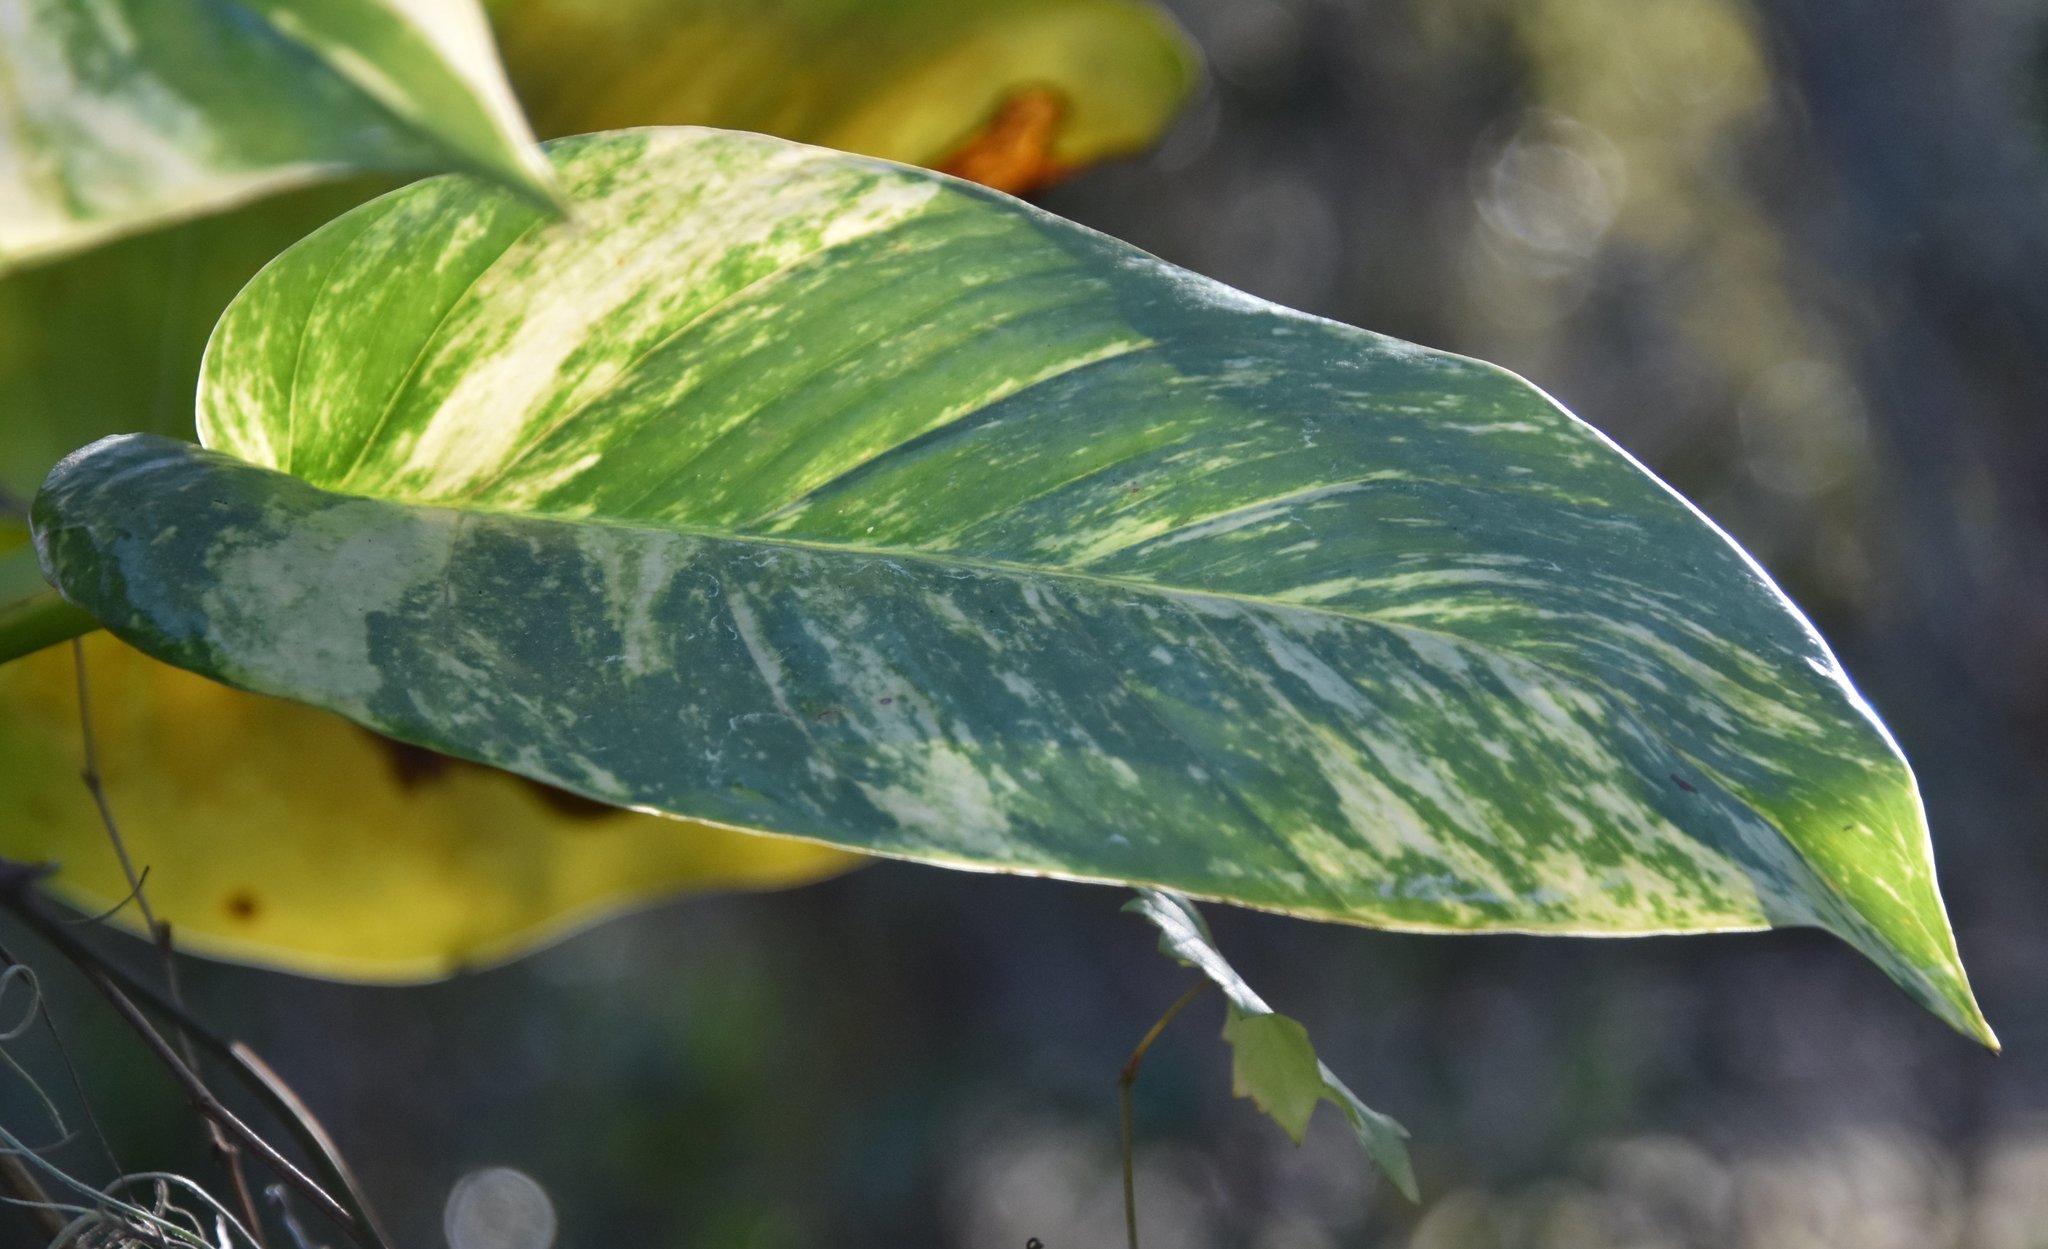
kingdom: Plantae
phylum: Tracheophyta
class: Liliopsida
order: Alismatales
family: Araceae
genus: Epipremnum
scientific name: Epipremnum aureum
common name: Golden hunter's-robe
